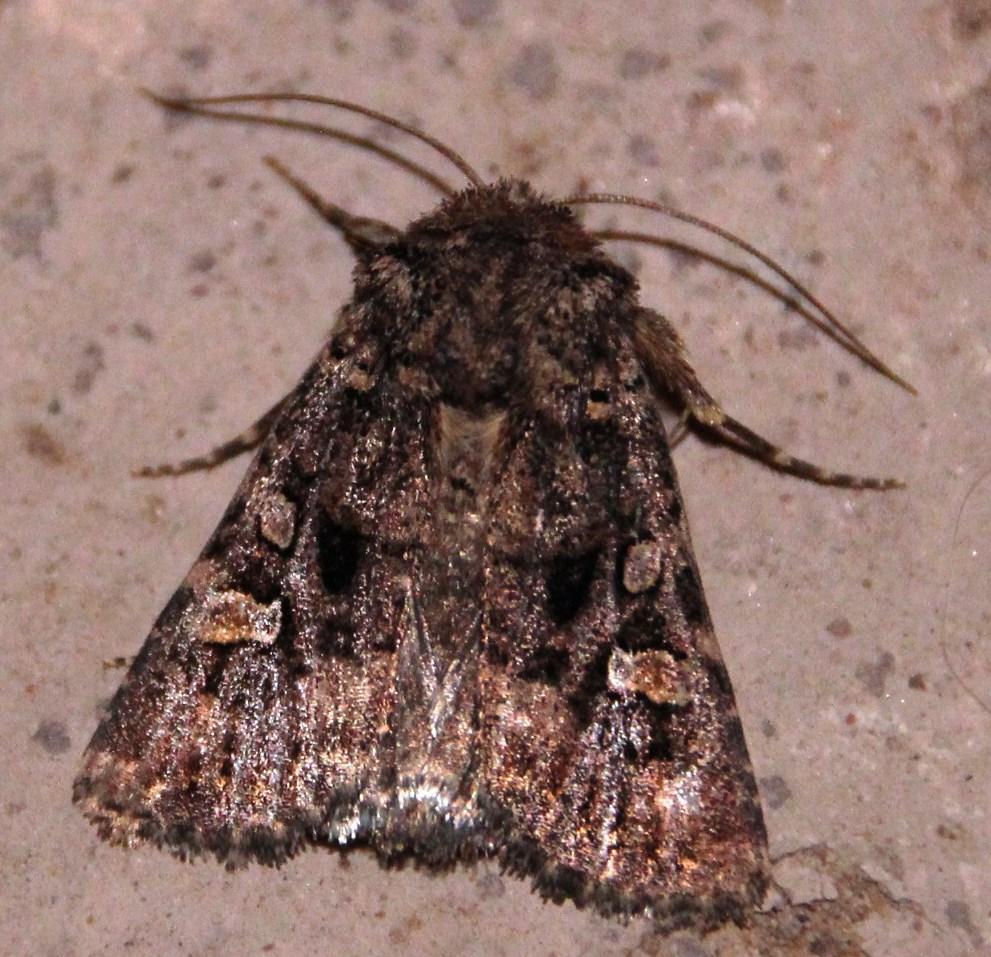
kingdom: Animalia
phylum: Arthropoda
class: Insecta
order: Lepidoptera
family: Noctuidae
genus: Tycomarptes
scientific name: Tycomarptes inferior
